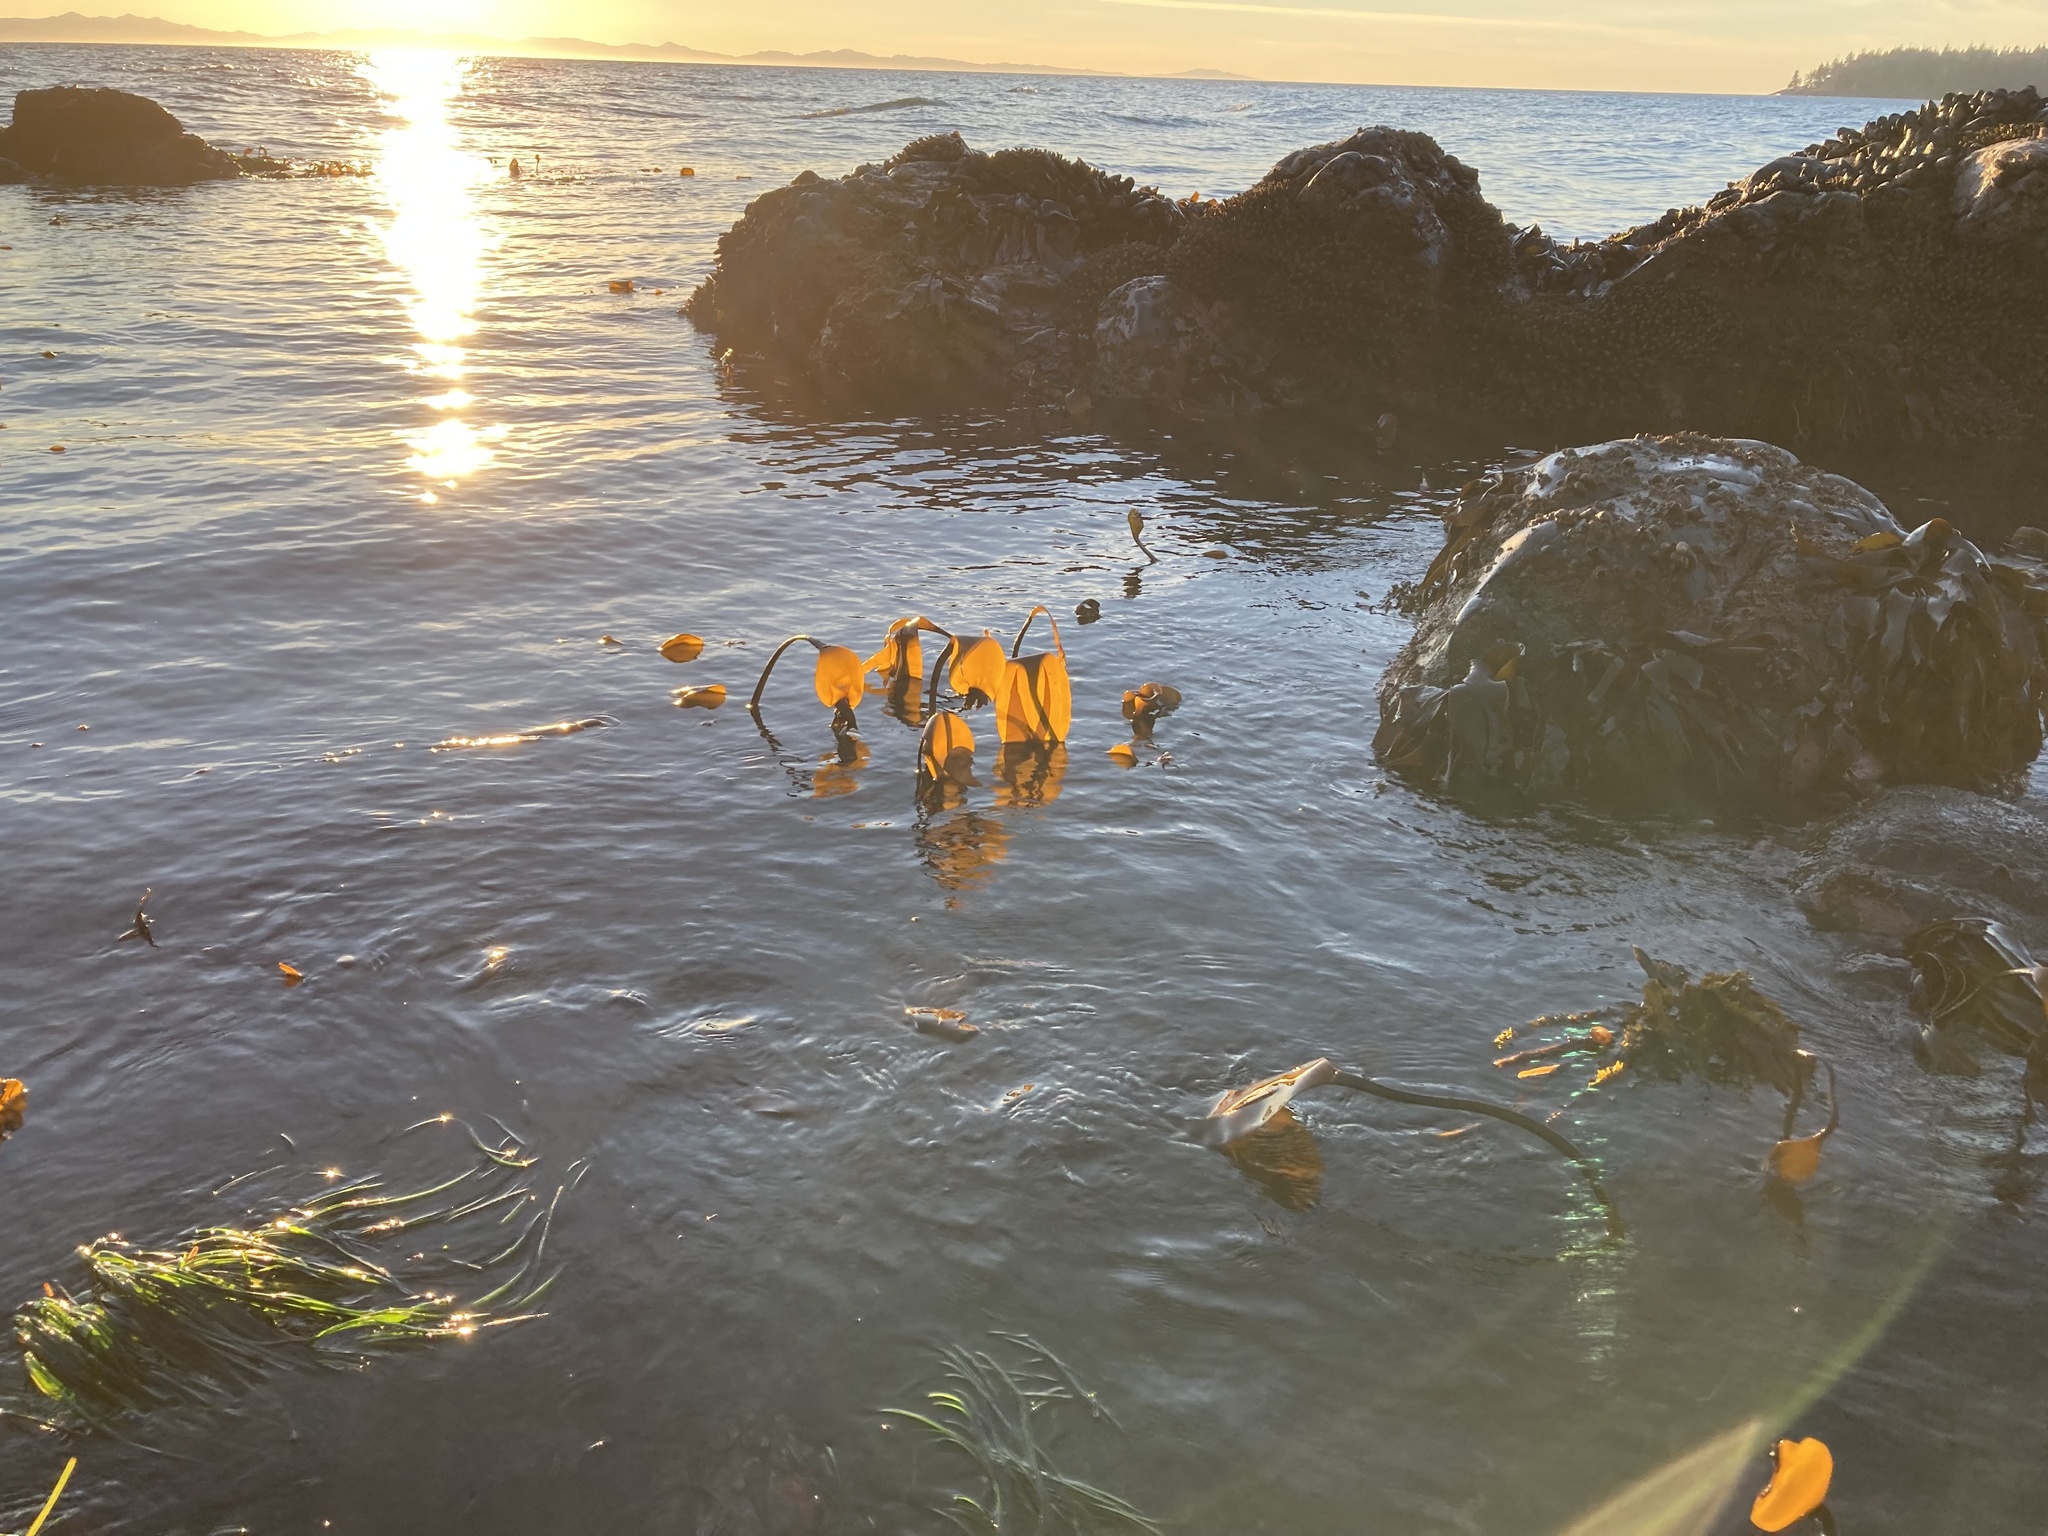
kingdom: Chromista
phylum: Ochrophyta
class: Phaeophyceae
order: Laminariales
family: Laminariaceae
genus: Laminaria
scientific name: Laminaria setchellii
